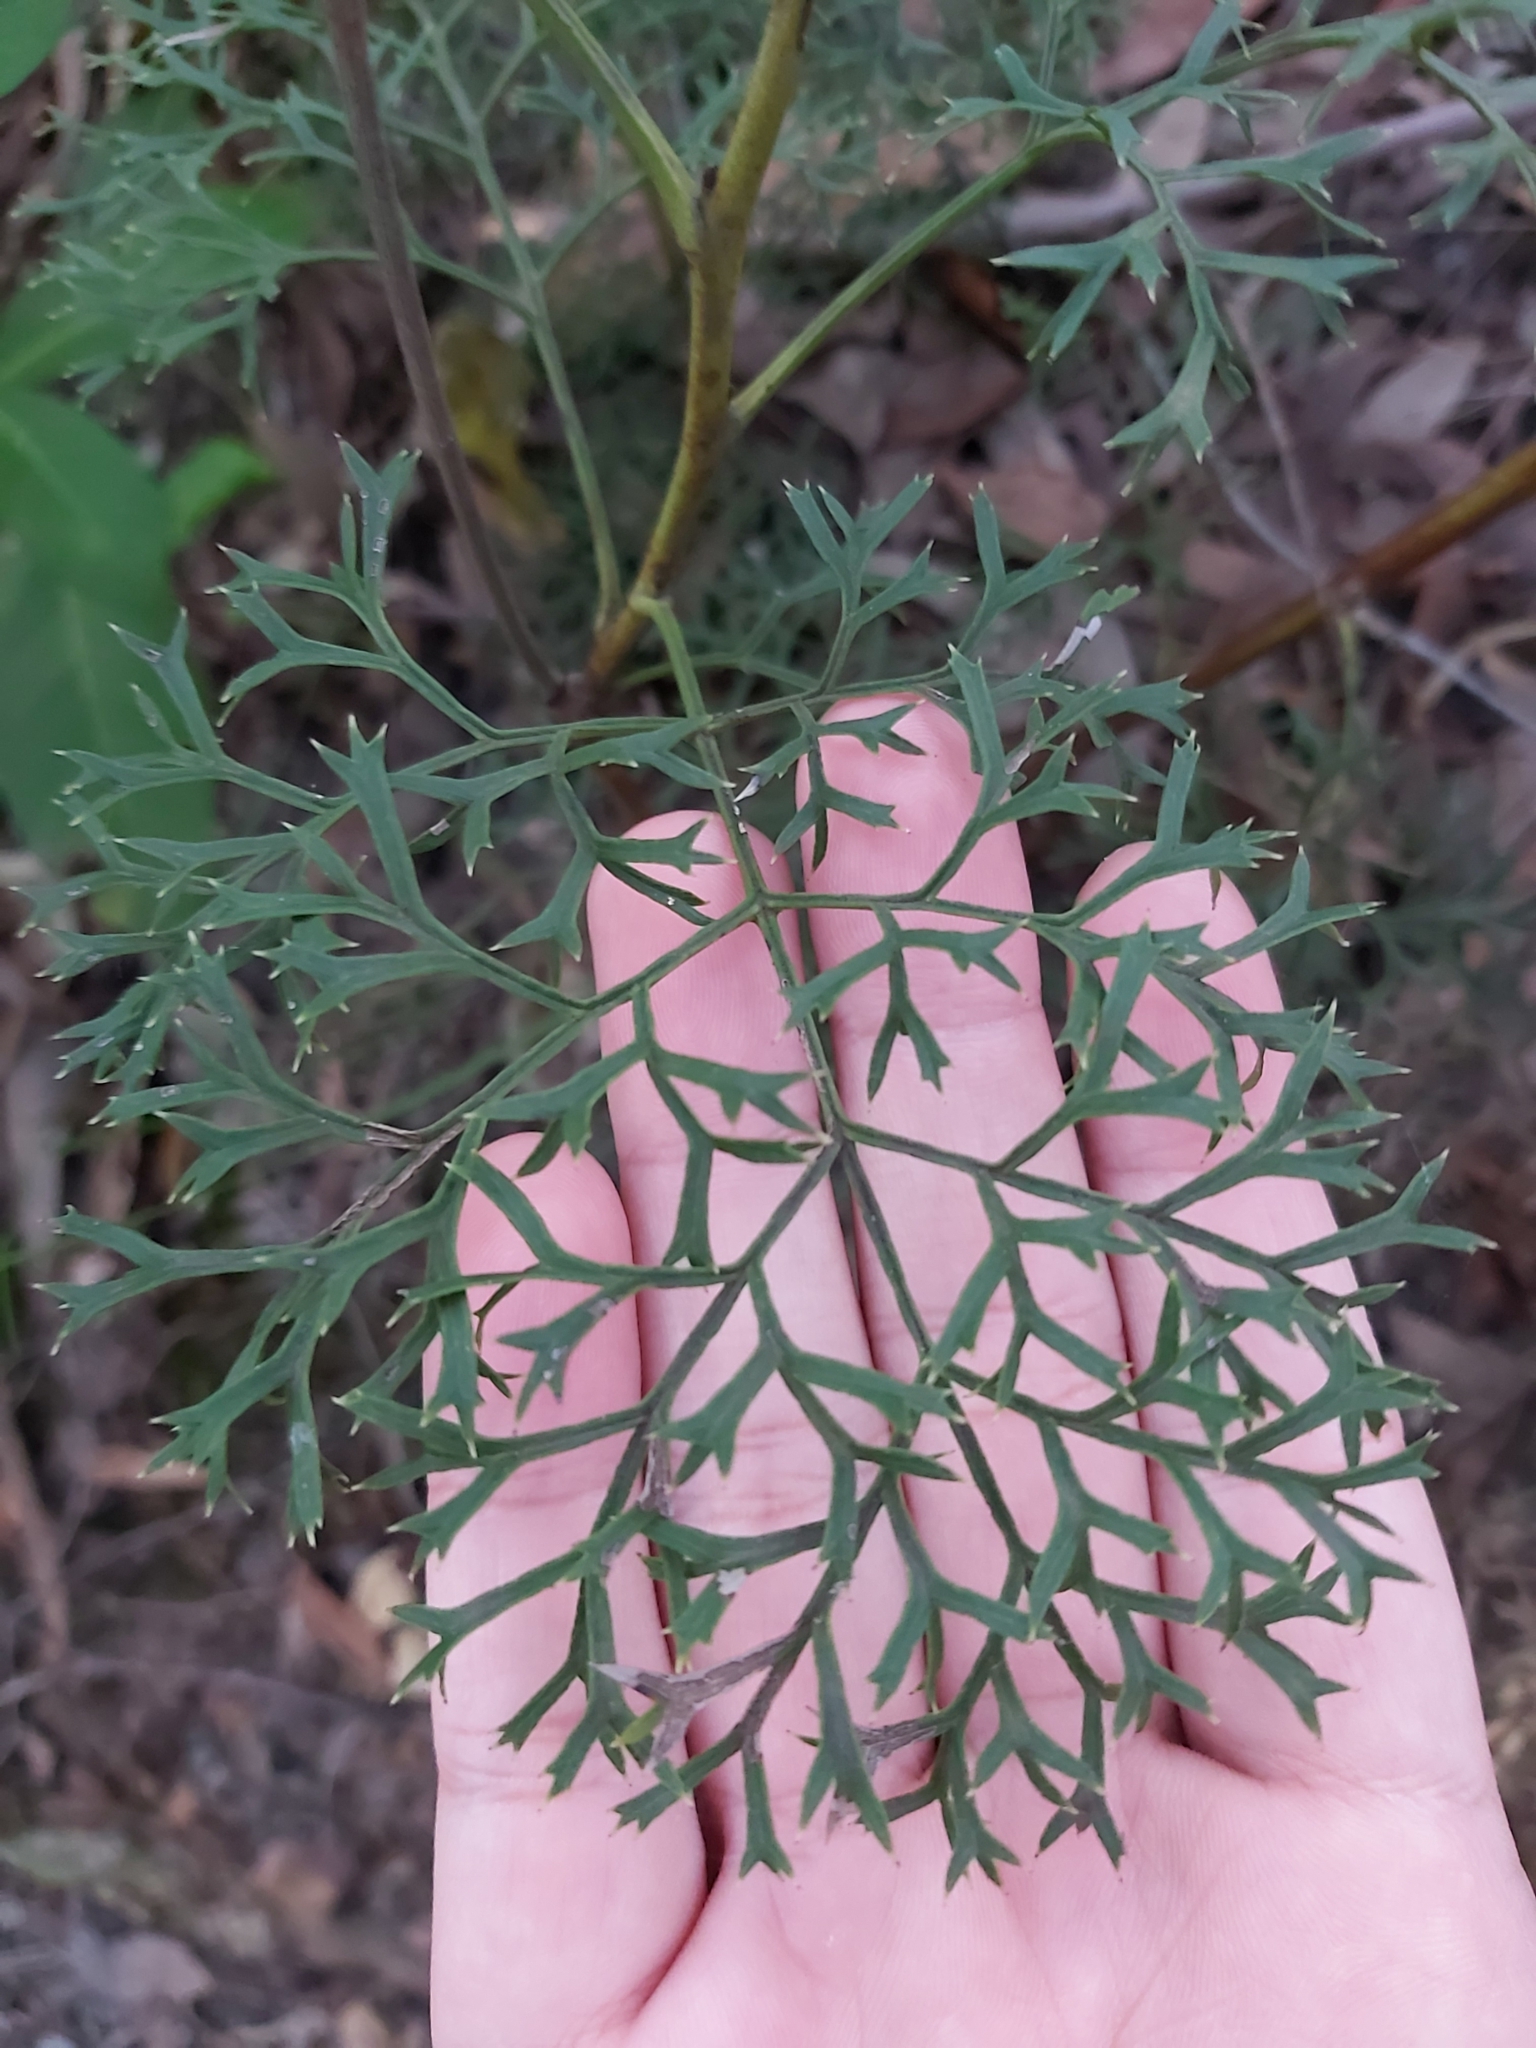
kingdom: Plantae
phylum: Tracheophyta
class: Magnoliopsida
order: Proteales
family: Proteaceae
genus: Lomatia
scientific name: Lomatia silaifolia
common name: Crinklebush
